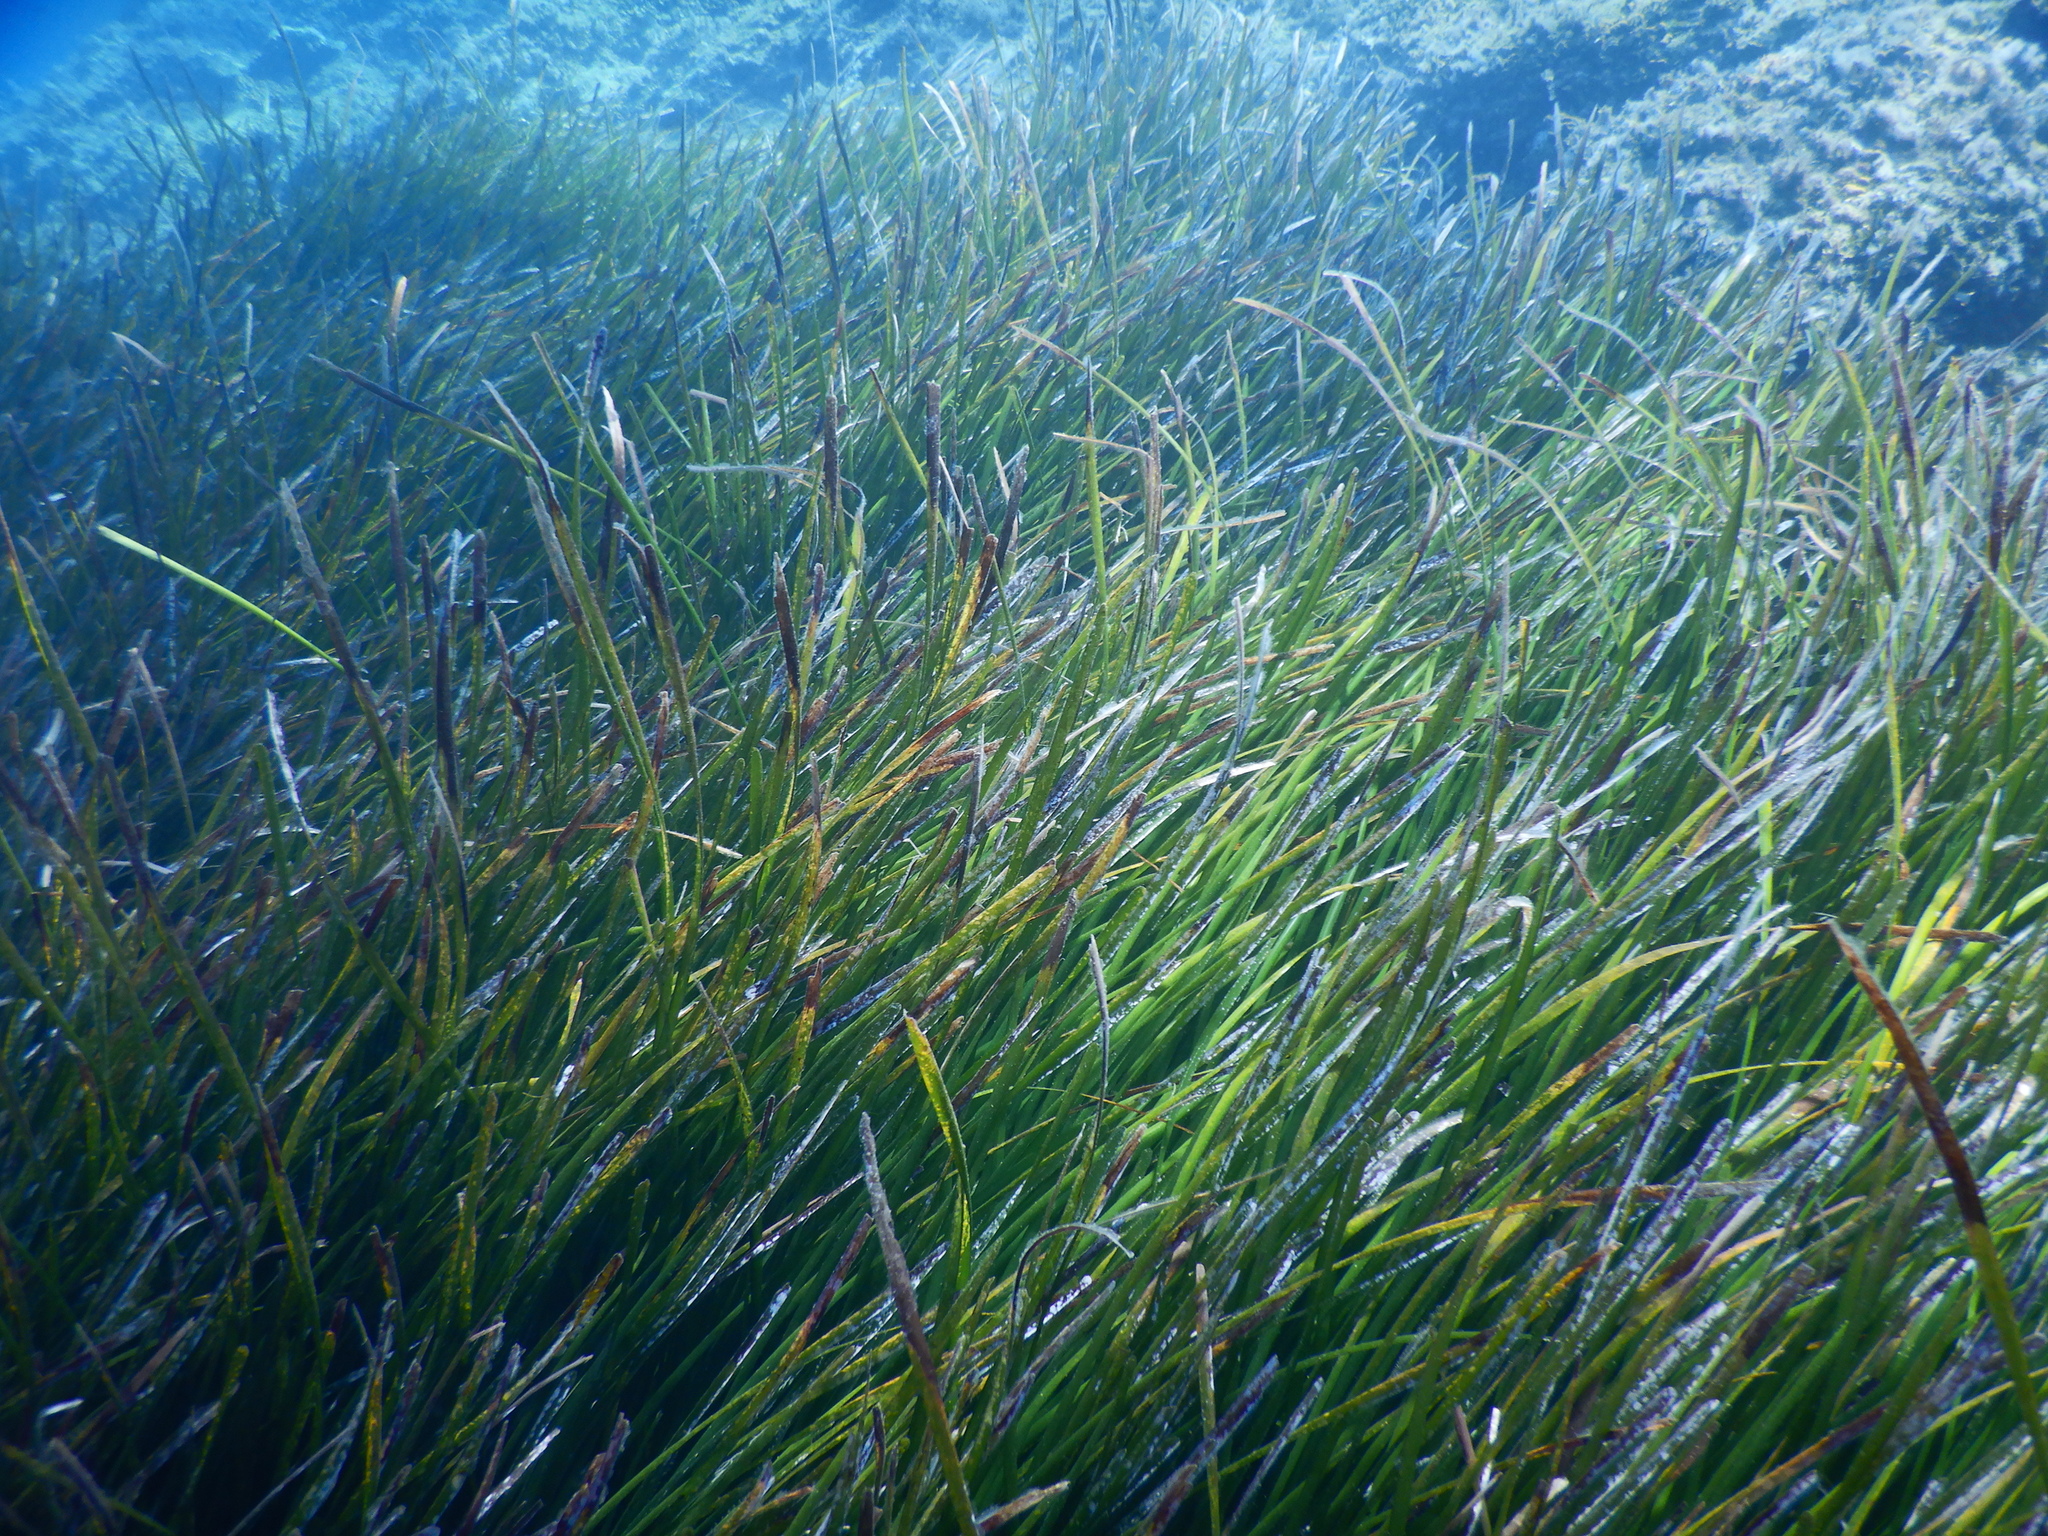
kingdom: Plantae
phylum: Tracheophyta
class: Liliopsida
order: Alismatales
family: Posidoniaceae
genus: Posidonia
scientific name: Posidonia oceanica
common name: Mediterranean tapeweed
